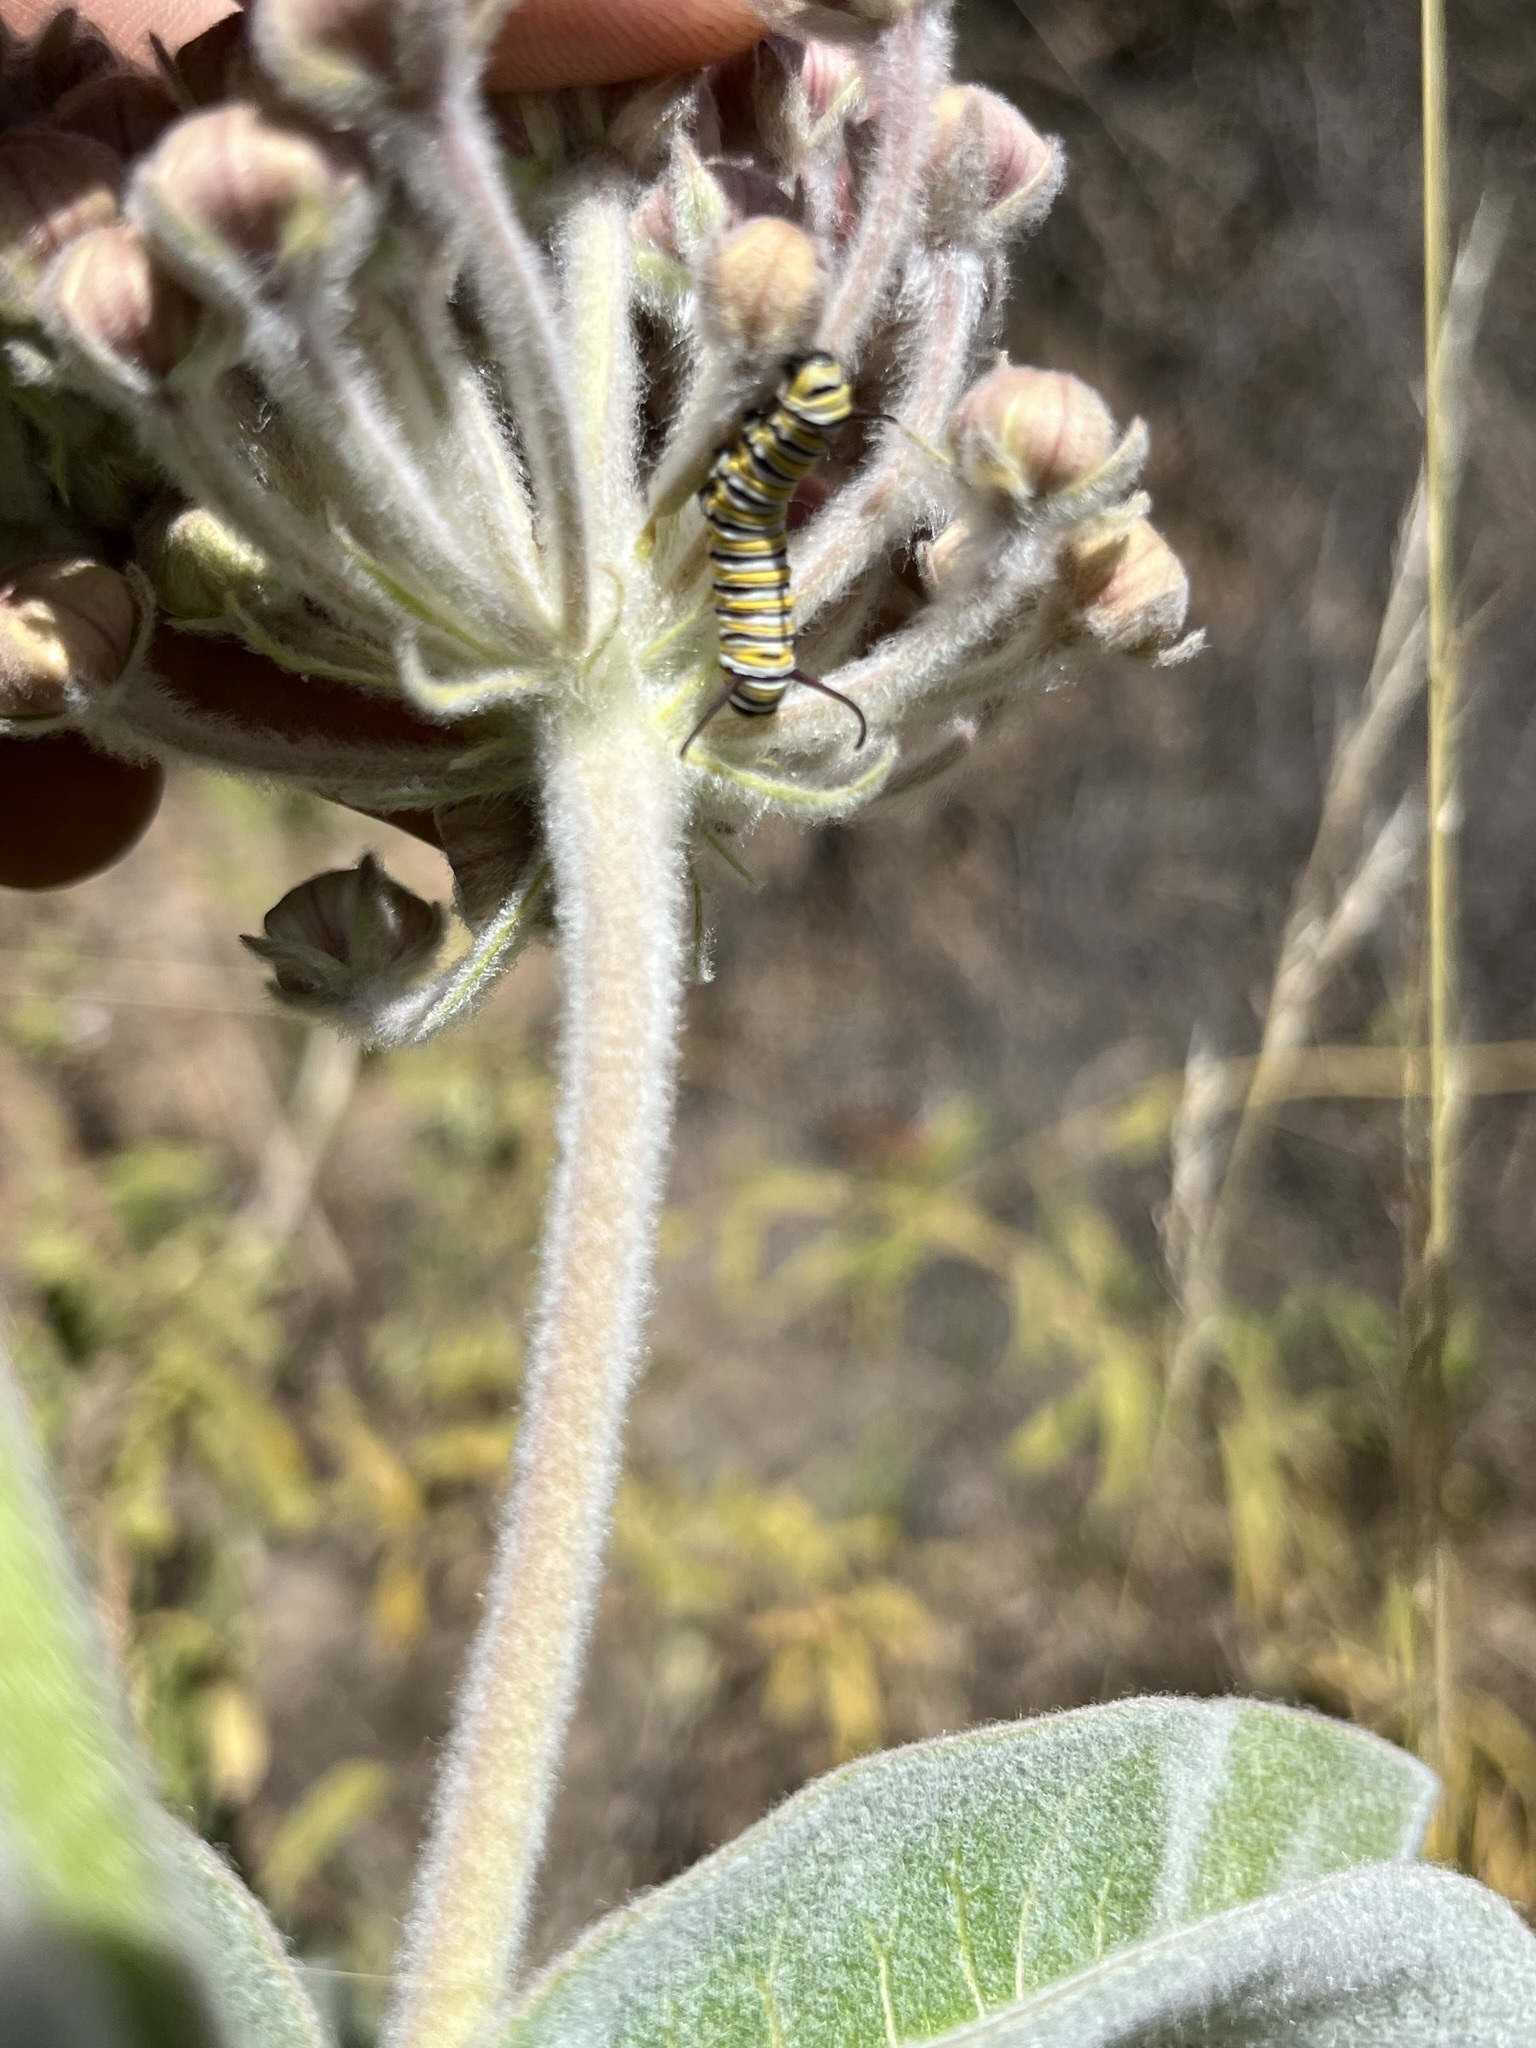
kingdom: Animalia
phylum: Arthropoda
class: Insecta
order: Lepidoptera
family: Nymphalidae
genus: Danaus
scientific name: Danaus plexippus
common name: Monarch
